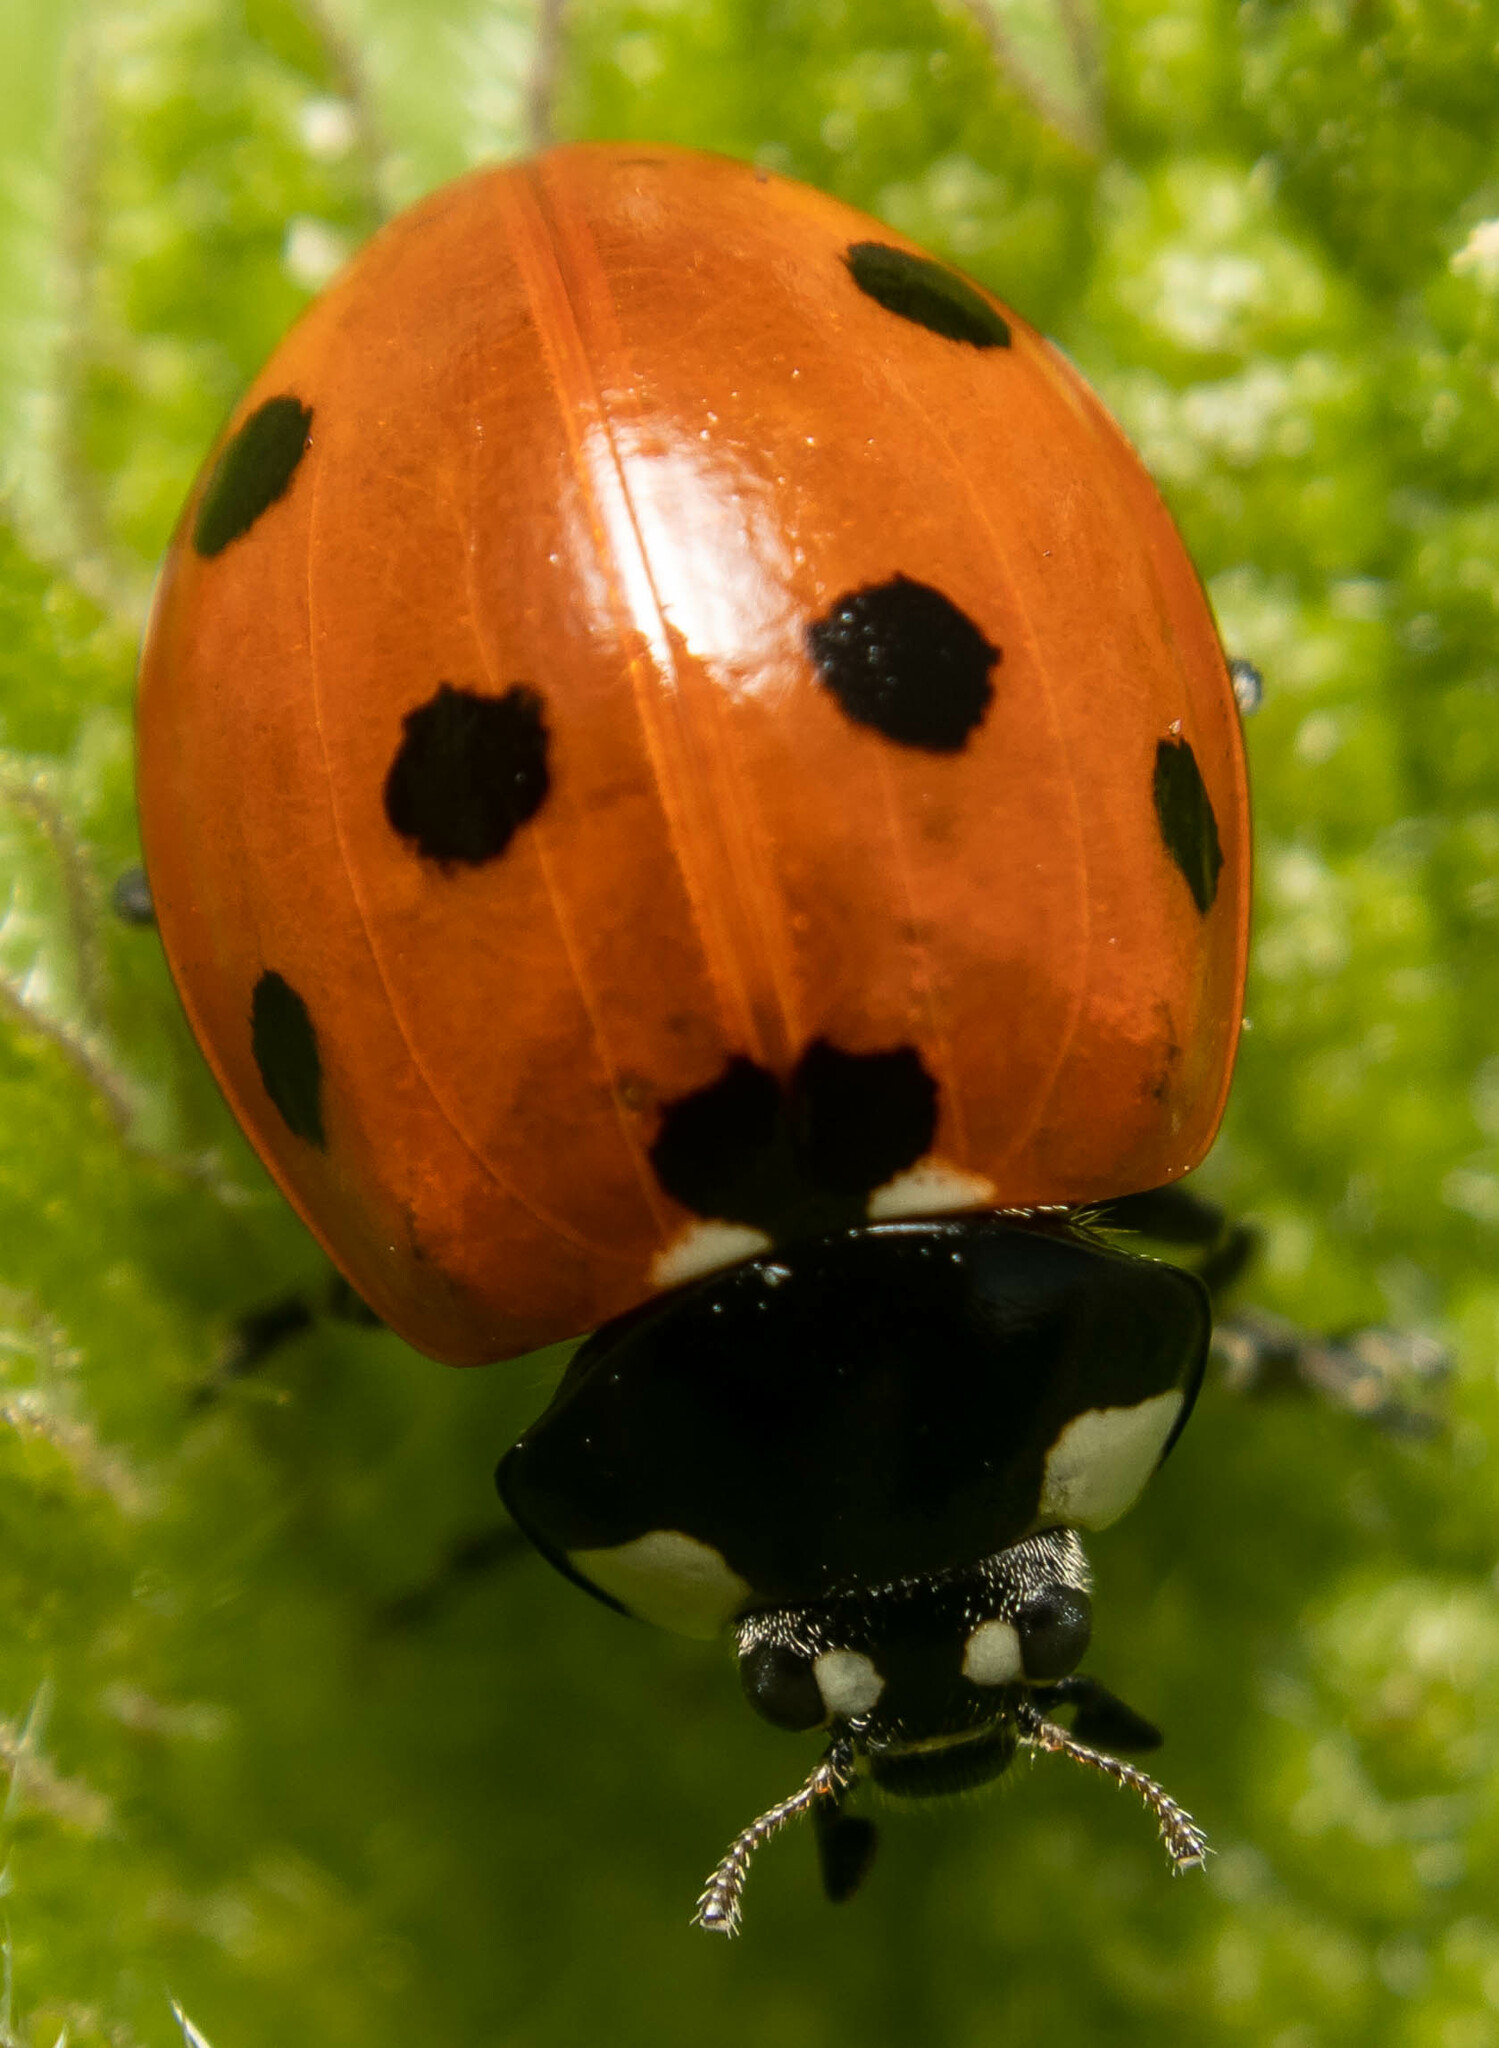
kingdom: Animalia
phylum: Arthropoda
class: Insecta
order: Coleoptera
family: Coccinellidae
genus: Coccinella
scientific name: Coccinella septempunctata
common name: Sevenspotted lady beetle
